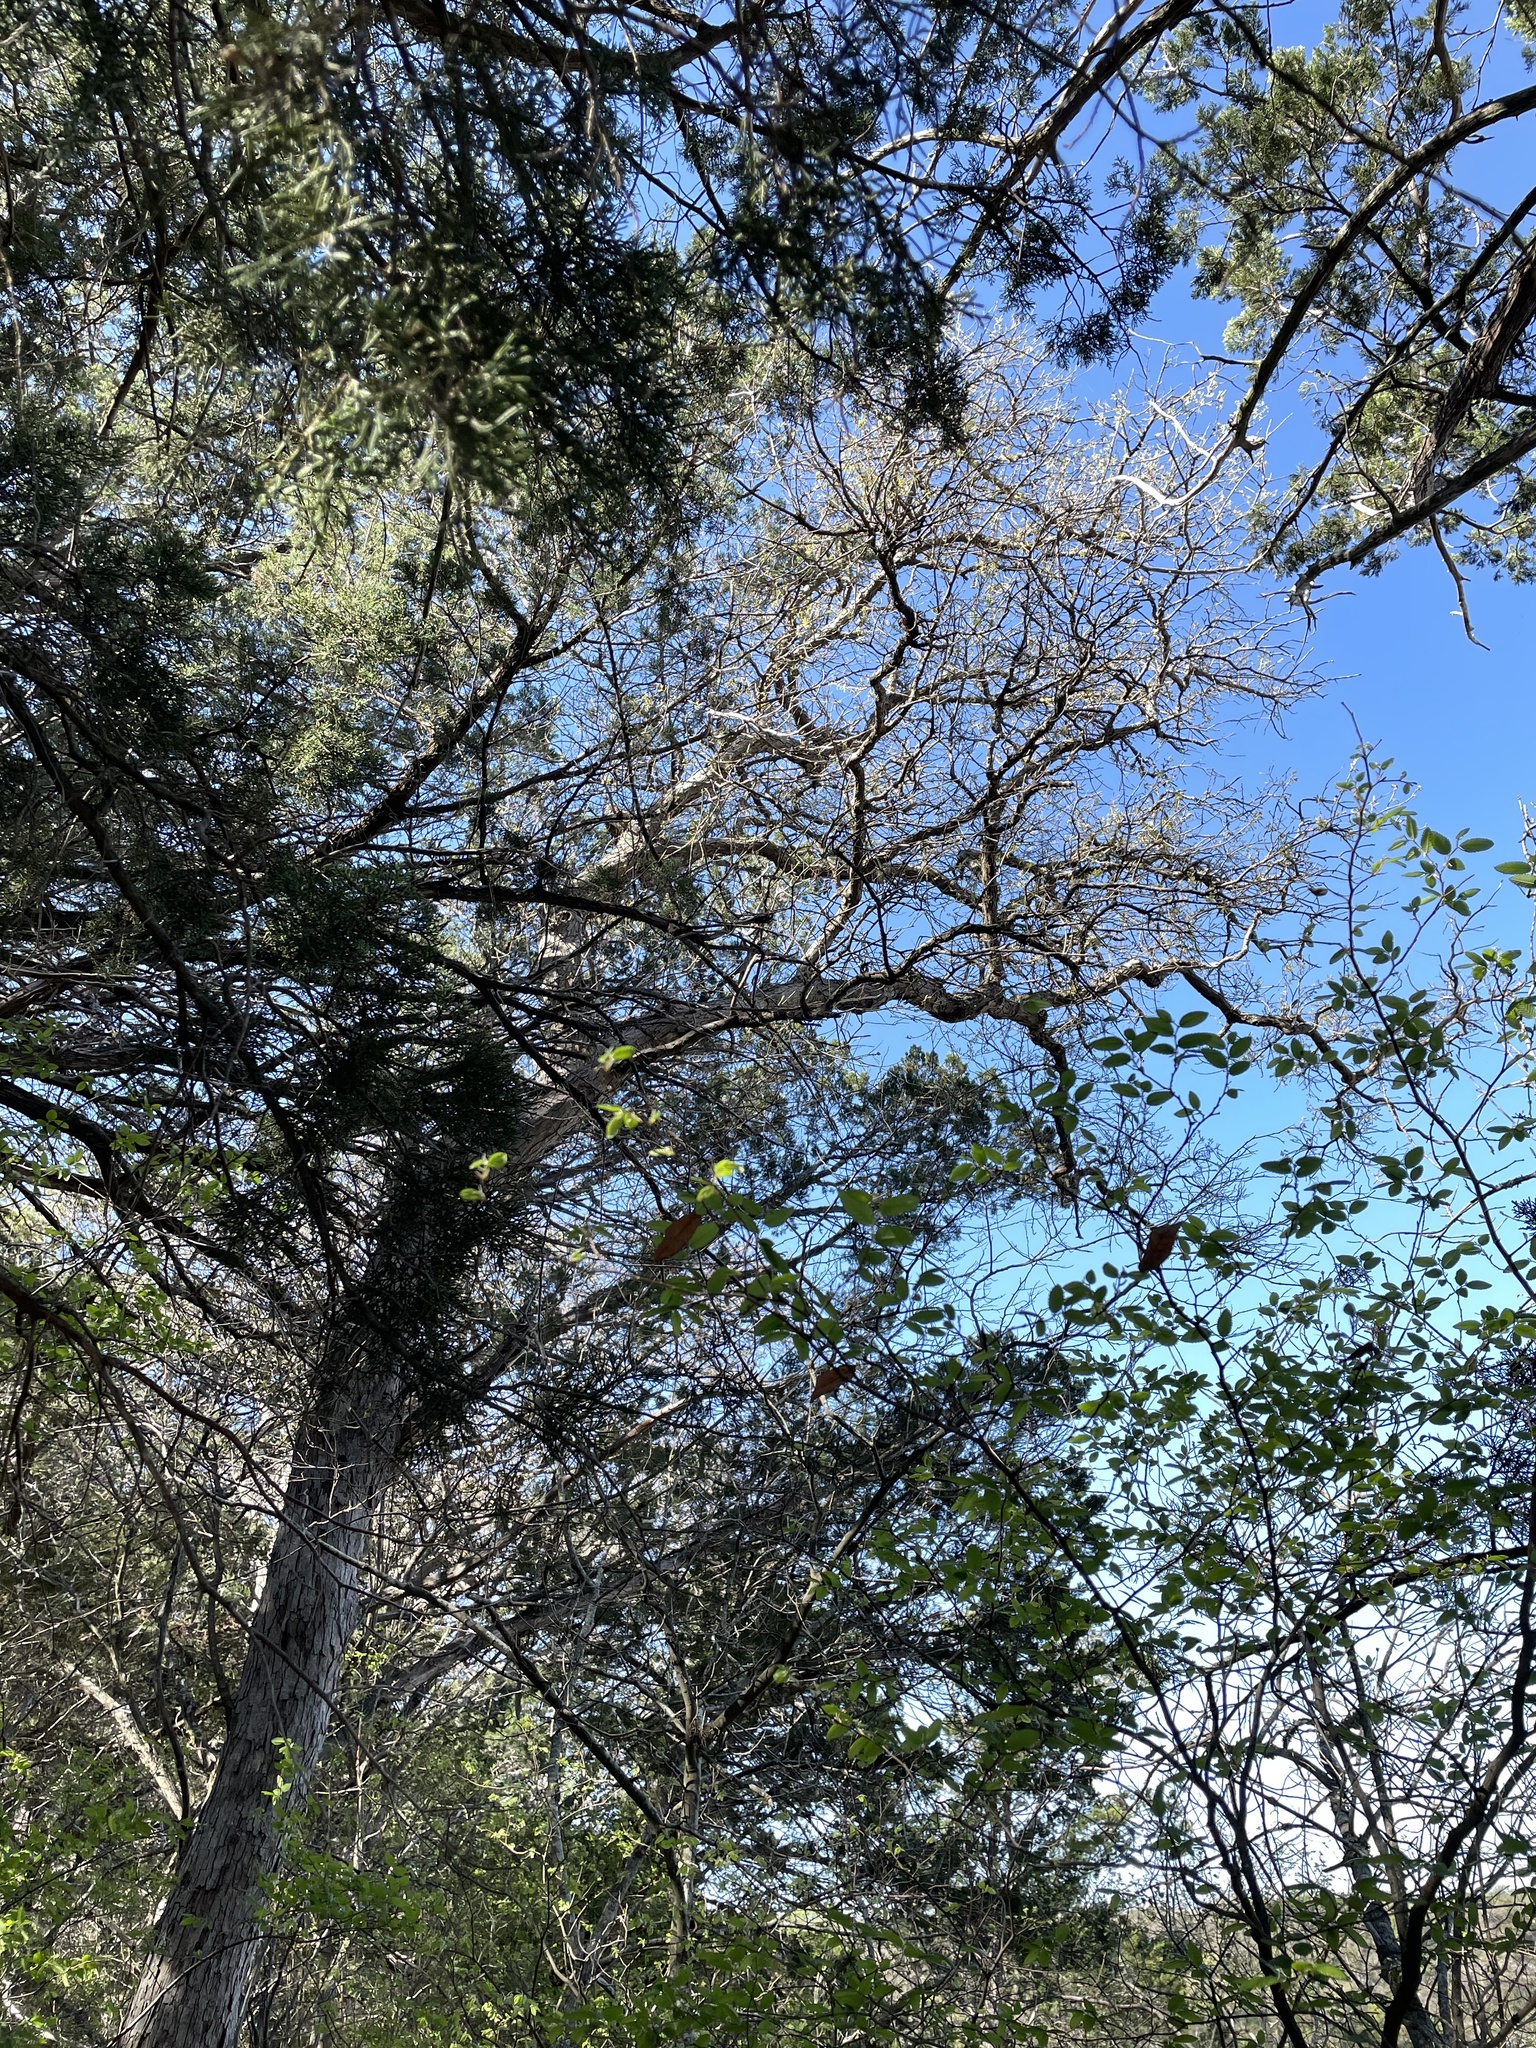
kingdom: Plantae
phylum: Tracheophyta
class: Magnoliopsida
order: Fagales
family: Fagaceae
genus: Quercus
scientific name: Quercus sinuata
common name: Durand oak
